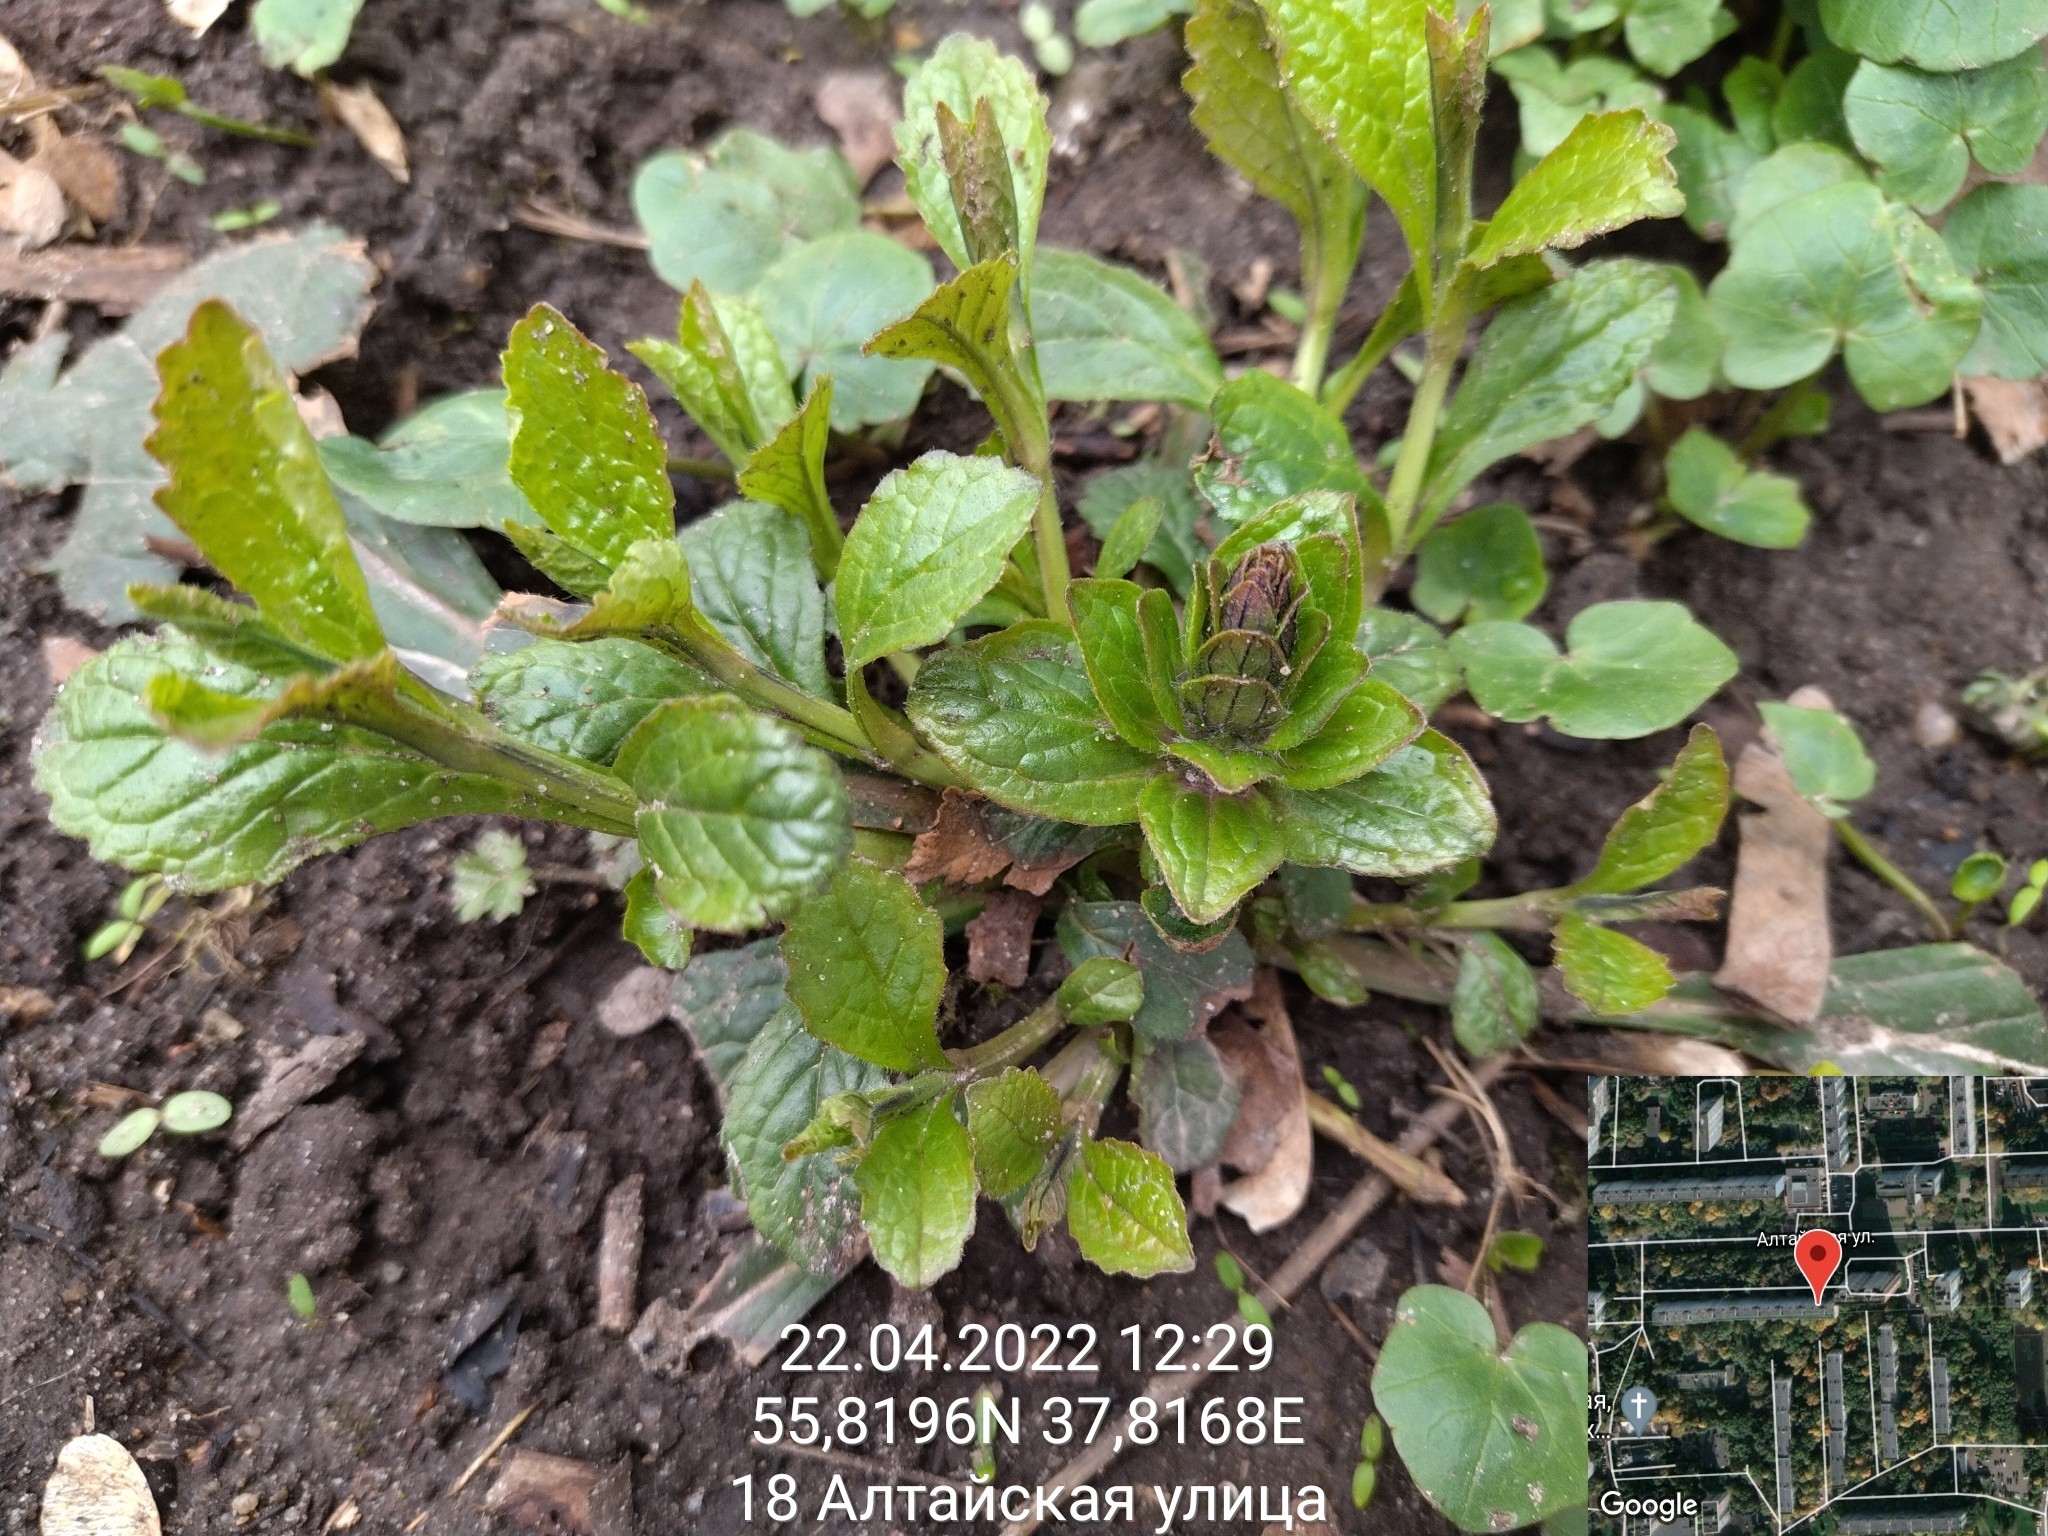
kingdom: Plantae
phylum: Tracheophyta
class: Magnoliopsida
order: Lamiales
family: Lamiaceae
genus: Ajuga
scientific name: Ajuga reptans
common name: Bugle
